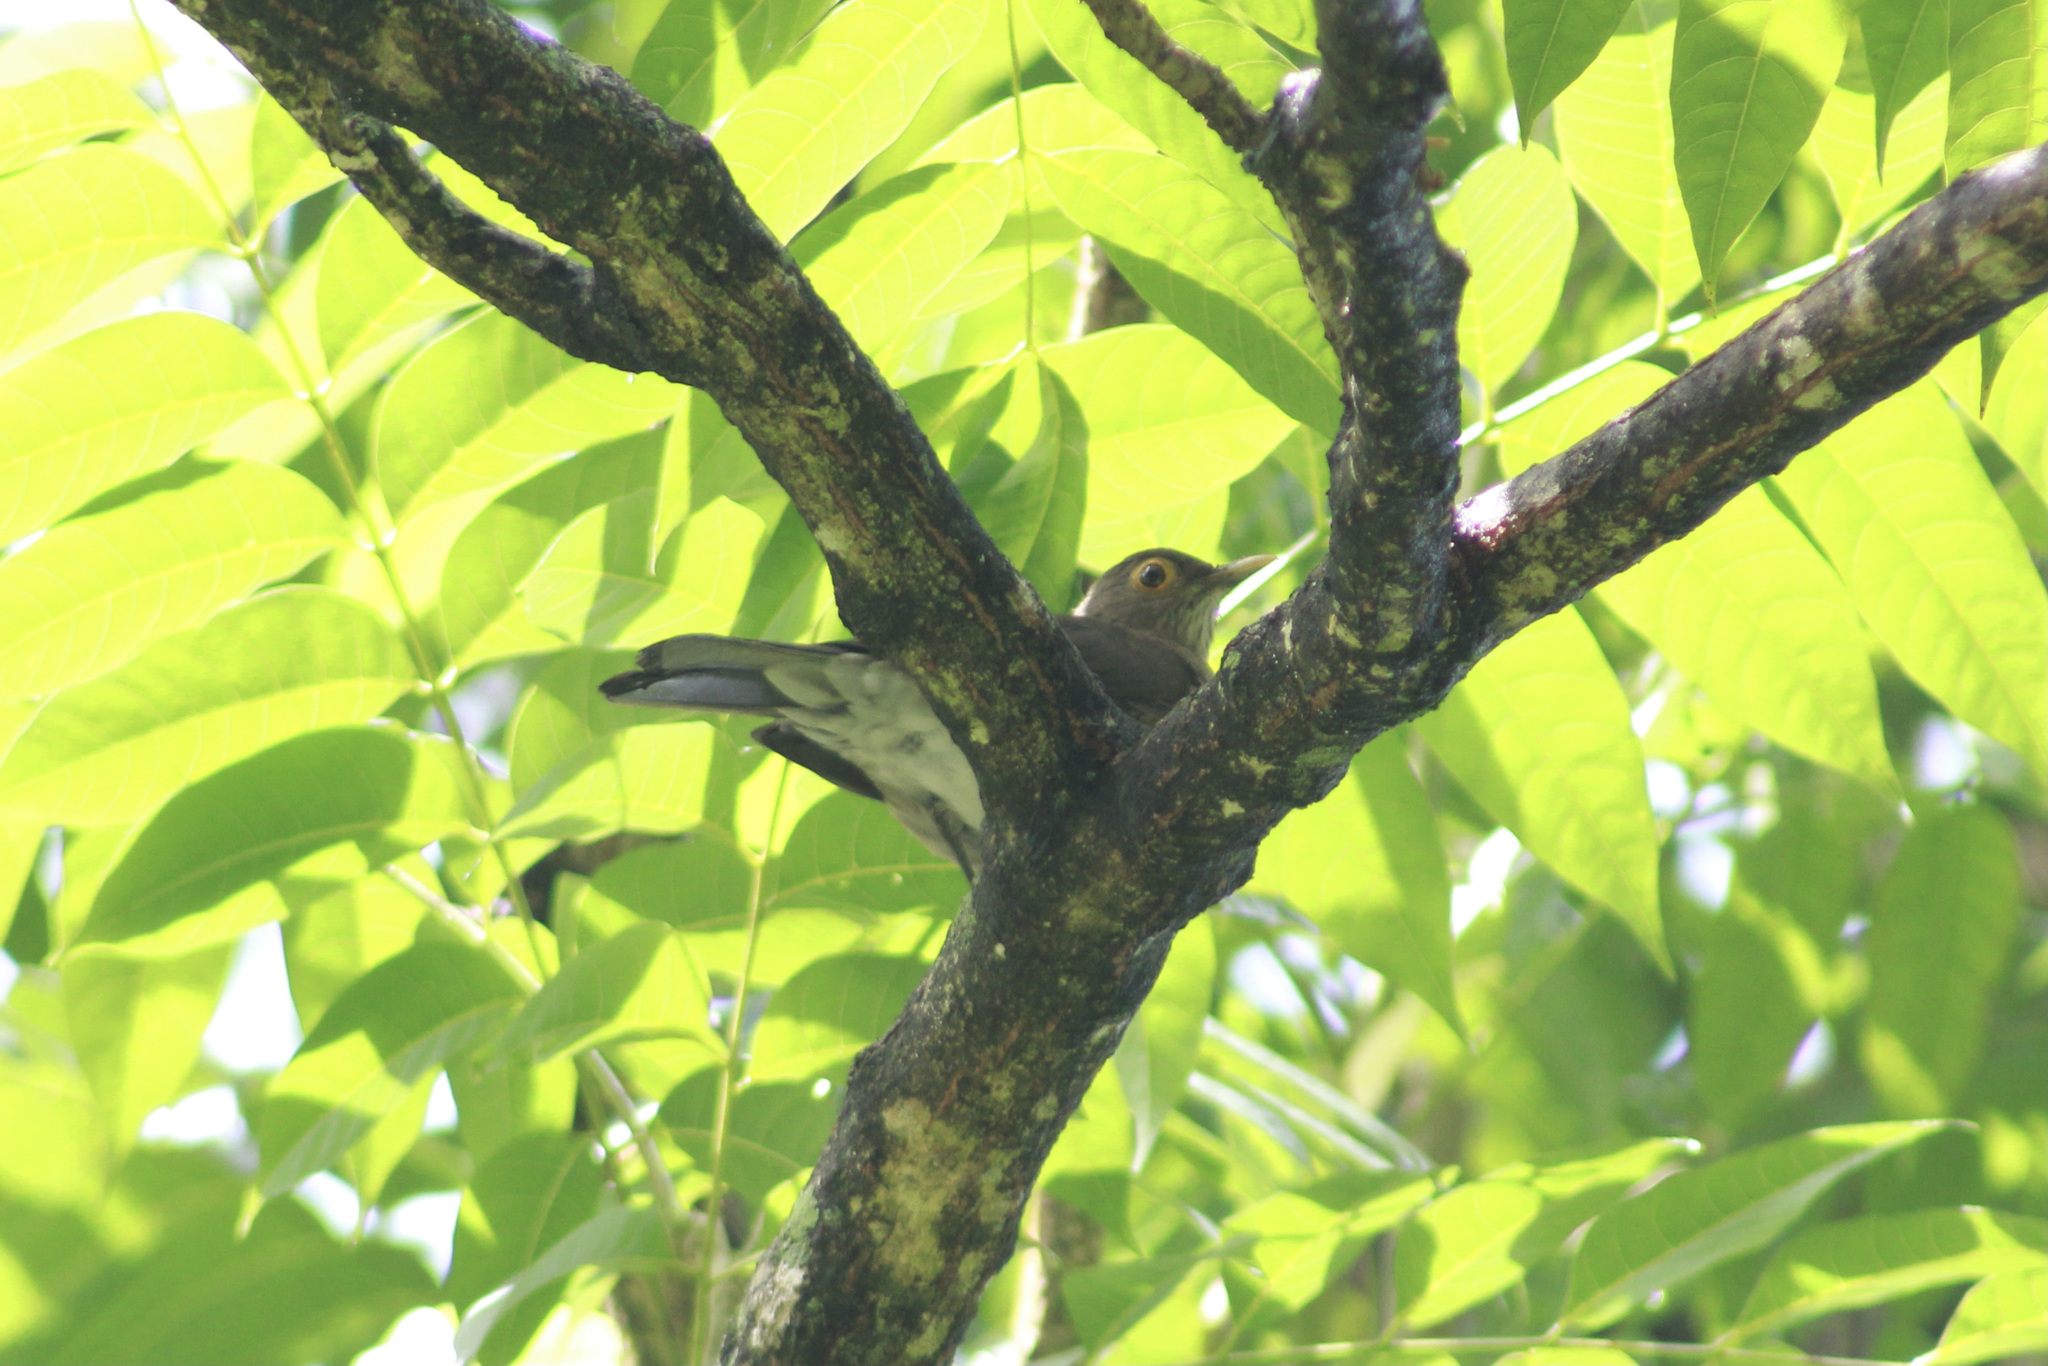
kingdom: Animalia
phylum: Chordata
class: Aves
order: Passeriformes
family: Turdidae
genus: Turdus
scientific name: Turdus nudigenis
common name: Spectacled thrush
